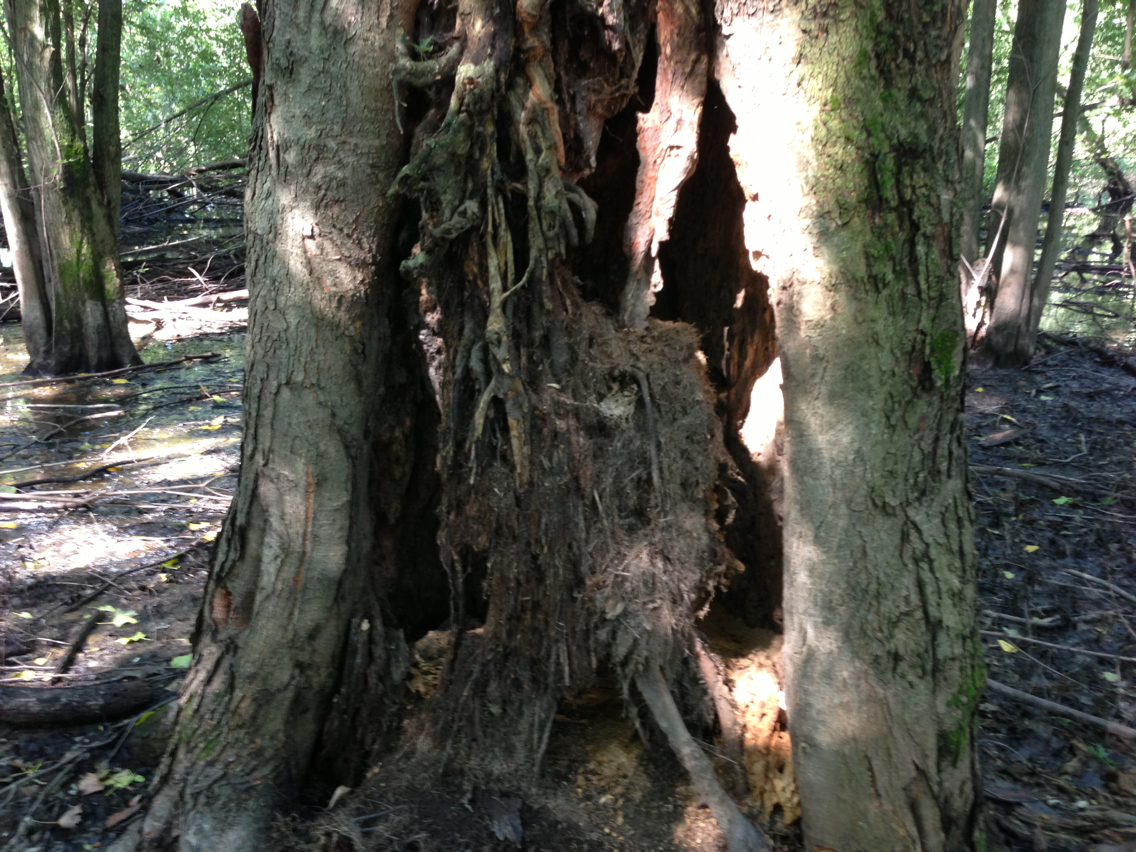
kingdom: Plantae
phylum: Tracheophyta
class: Magnoliopsida
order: Sapindales
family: Sapindaceae
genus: Acer
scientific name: Acer saccharinum
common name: Silver maple
